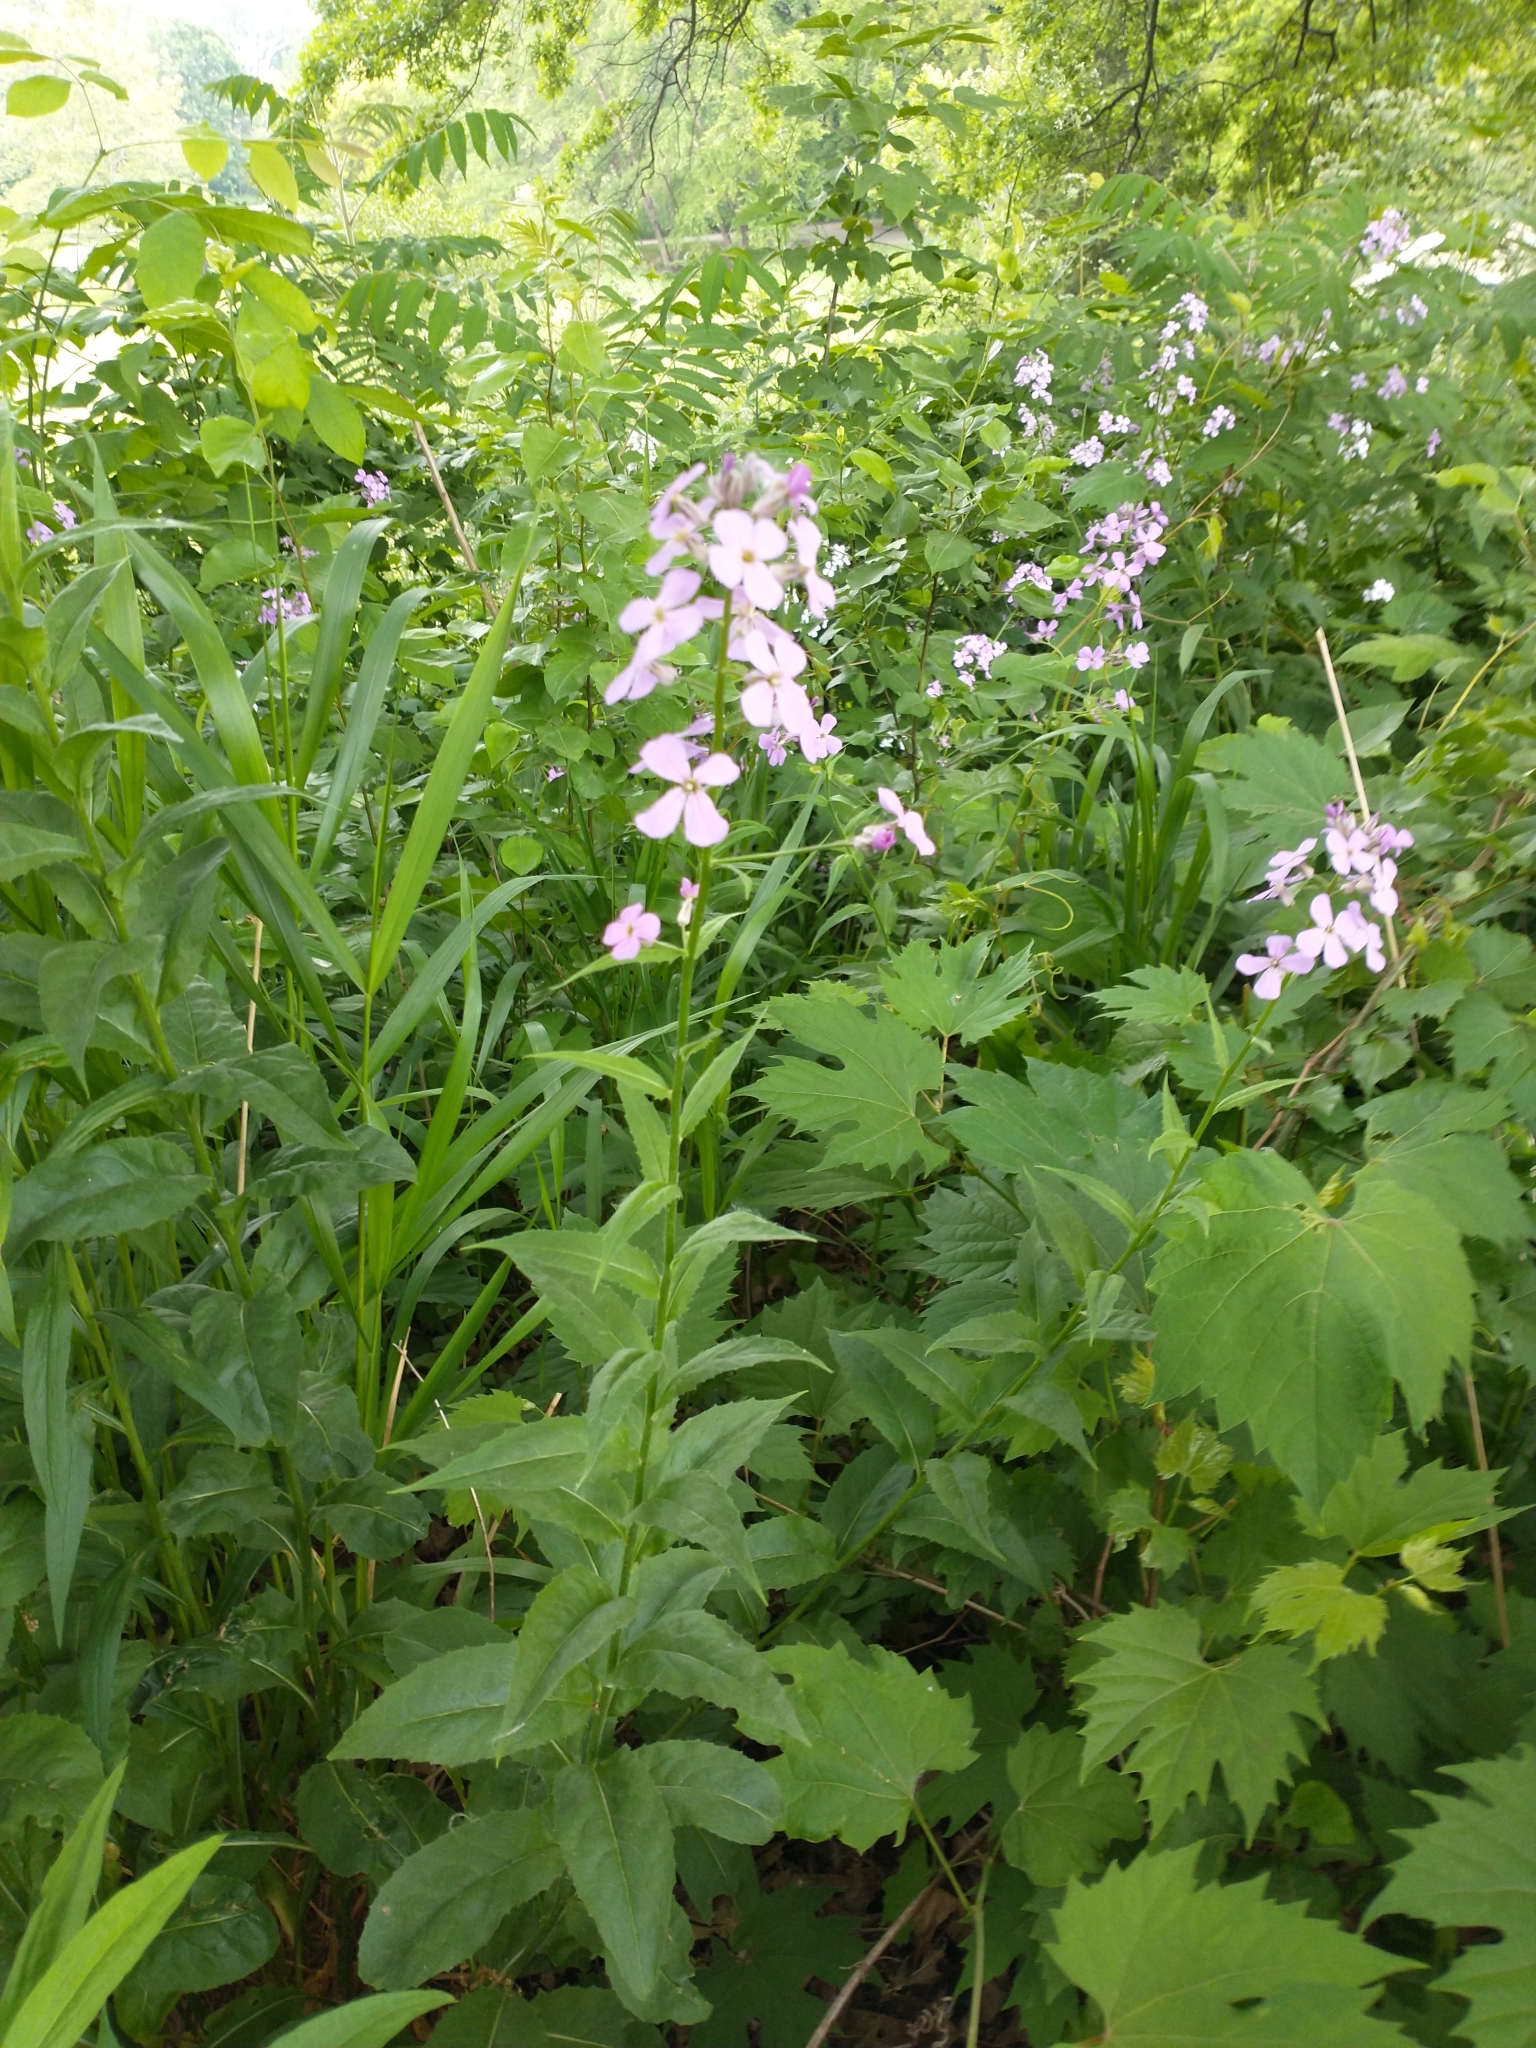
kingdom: Plantae
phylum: Tracheophyta
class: Magnoliopsida
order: Brassicales
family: Brassicaceae
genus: Hesperis
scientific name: Hesperis matronalis
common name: Dame's-violet
